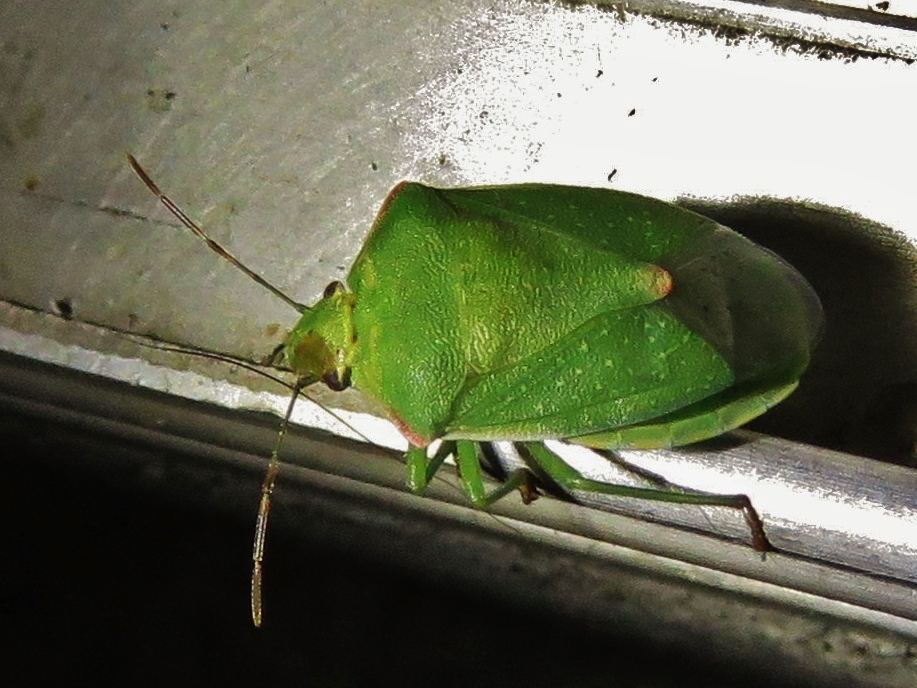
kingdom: Animalia
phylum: Arthropoda
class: Insecta
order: Hemiptera
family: Pentatomidae
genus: Thyanta
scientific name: Thyanta custator
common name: Stink bug
